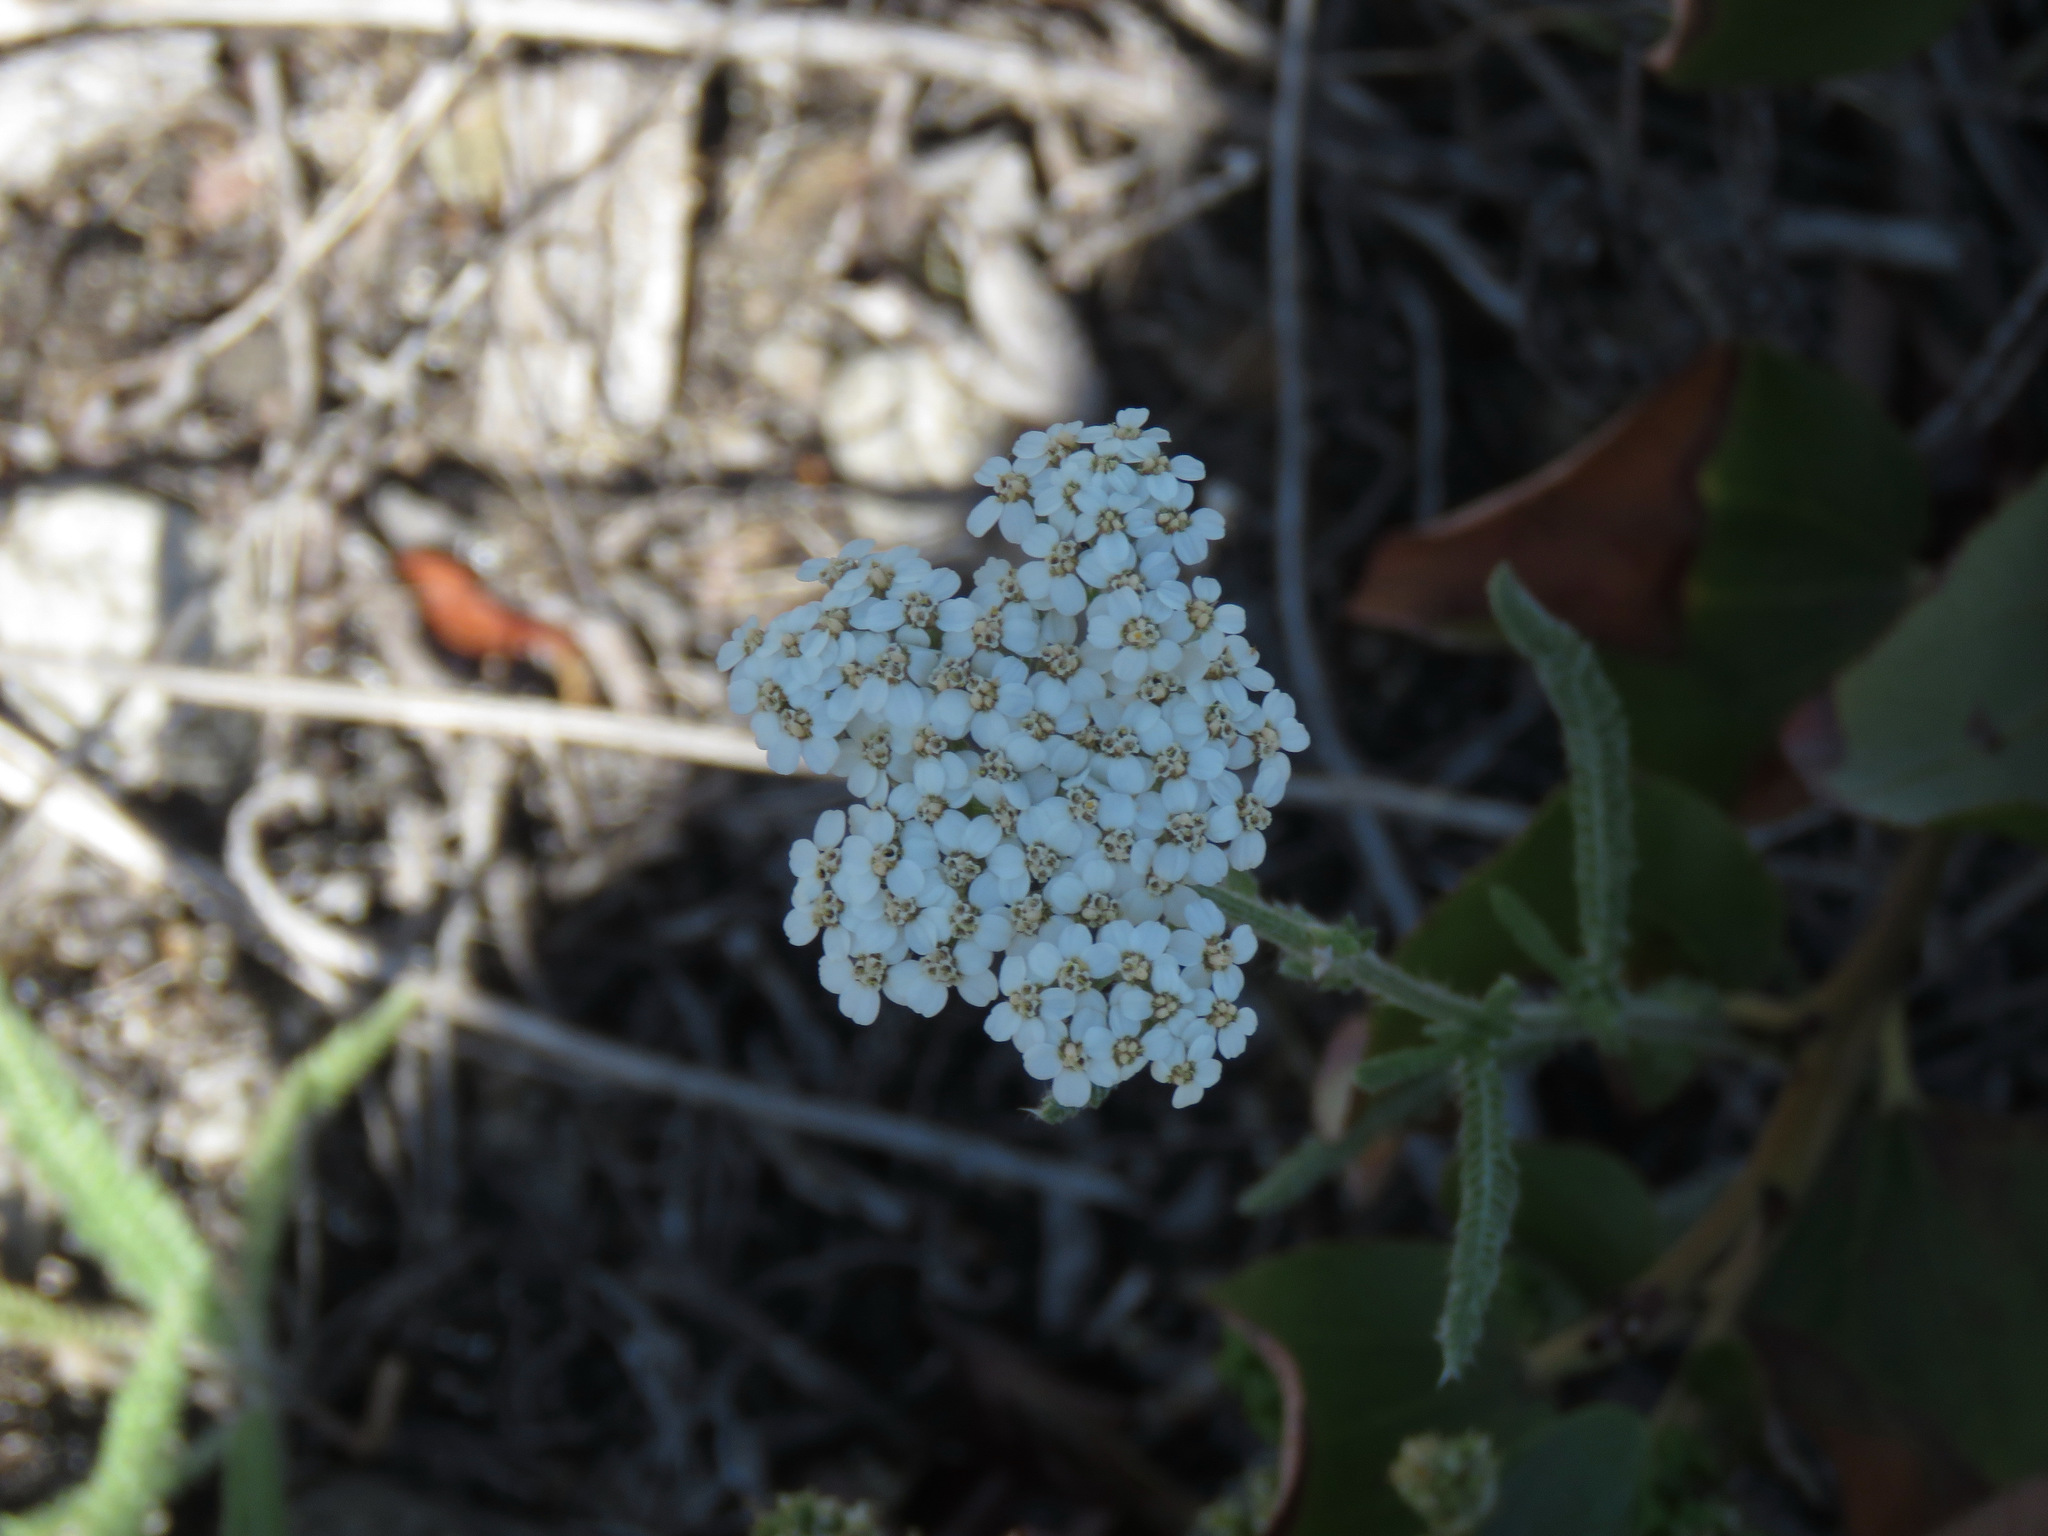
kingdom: Plantae
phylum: Tracheophyta
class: Magnoliopsida
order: Asterales
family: Asteraceae
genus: Achillea
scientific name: Achillea millefolium
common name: Yarrow
